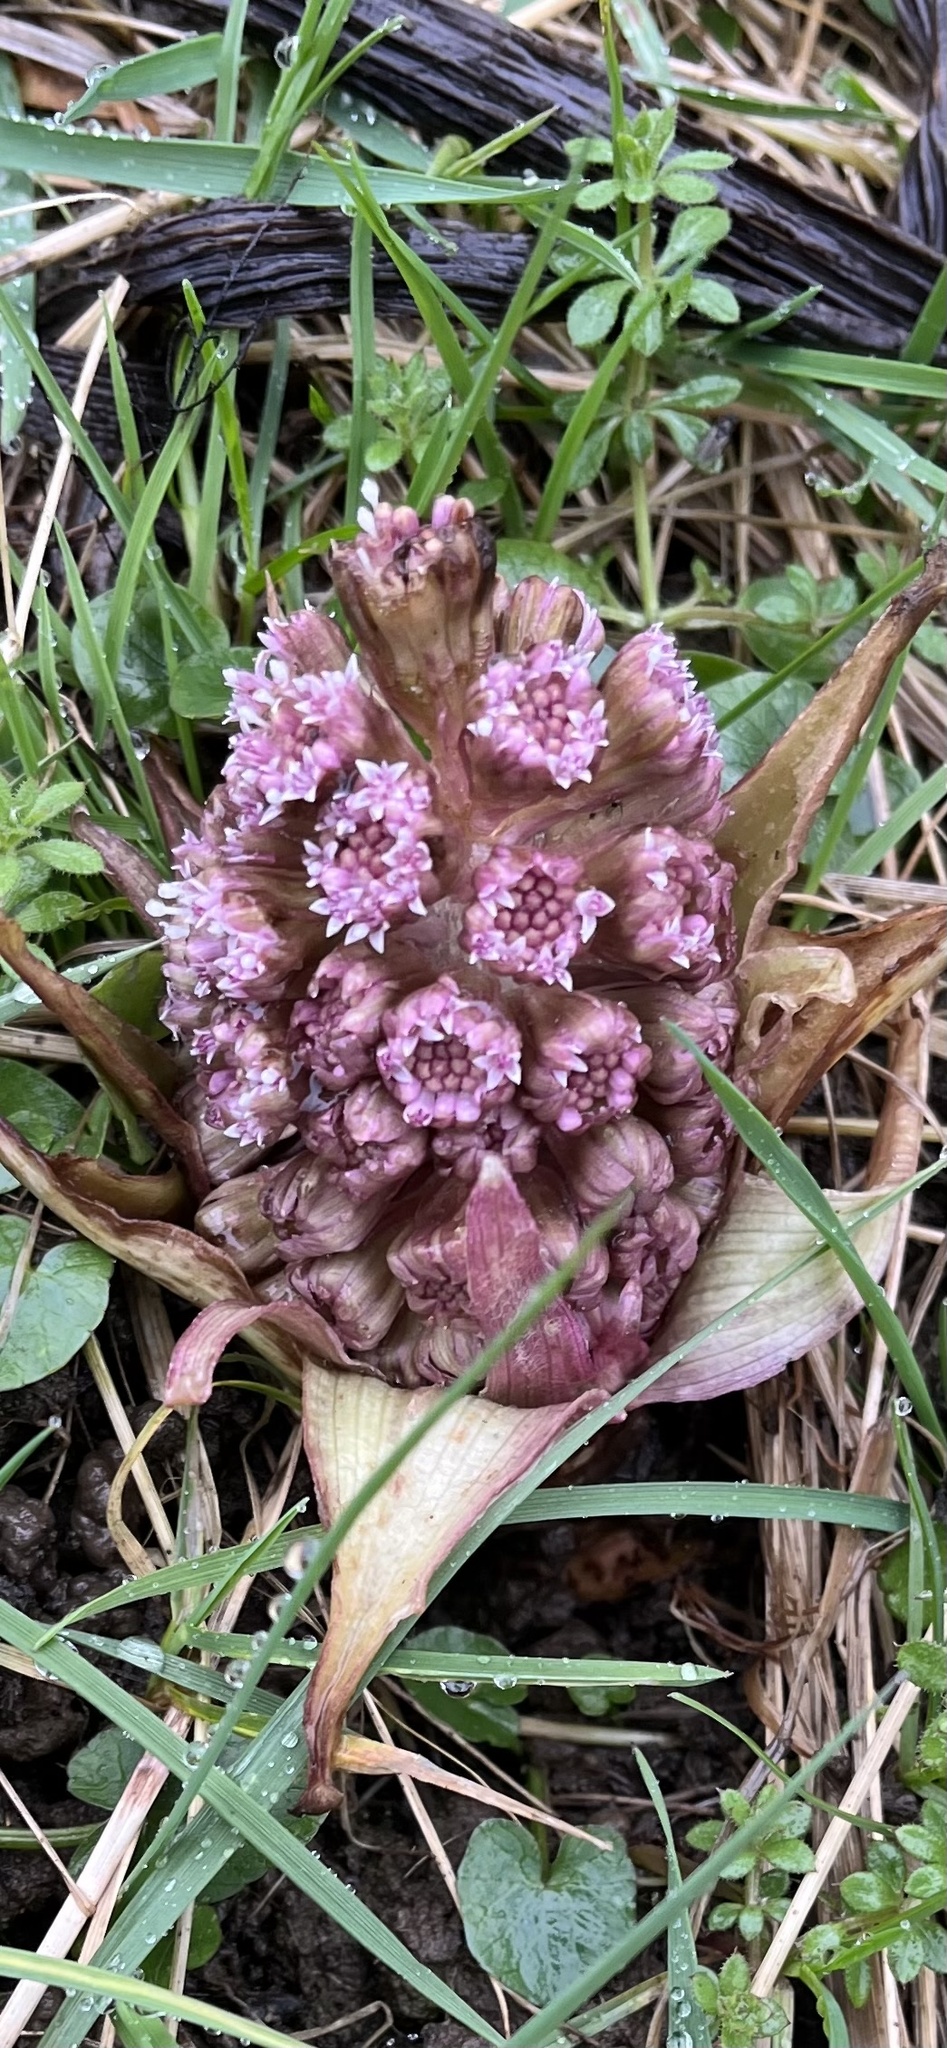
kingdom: Plantae
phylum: Tracheophyta
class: Magnoliopsida
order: Asterales
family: Asteraceae
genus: Petasites
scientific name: Petasites hybridus
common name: Butterbur
